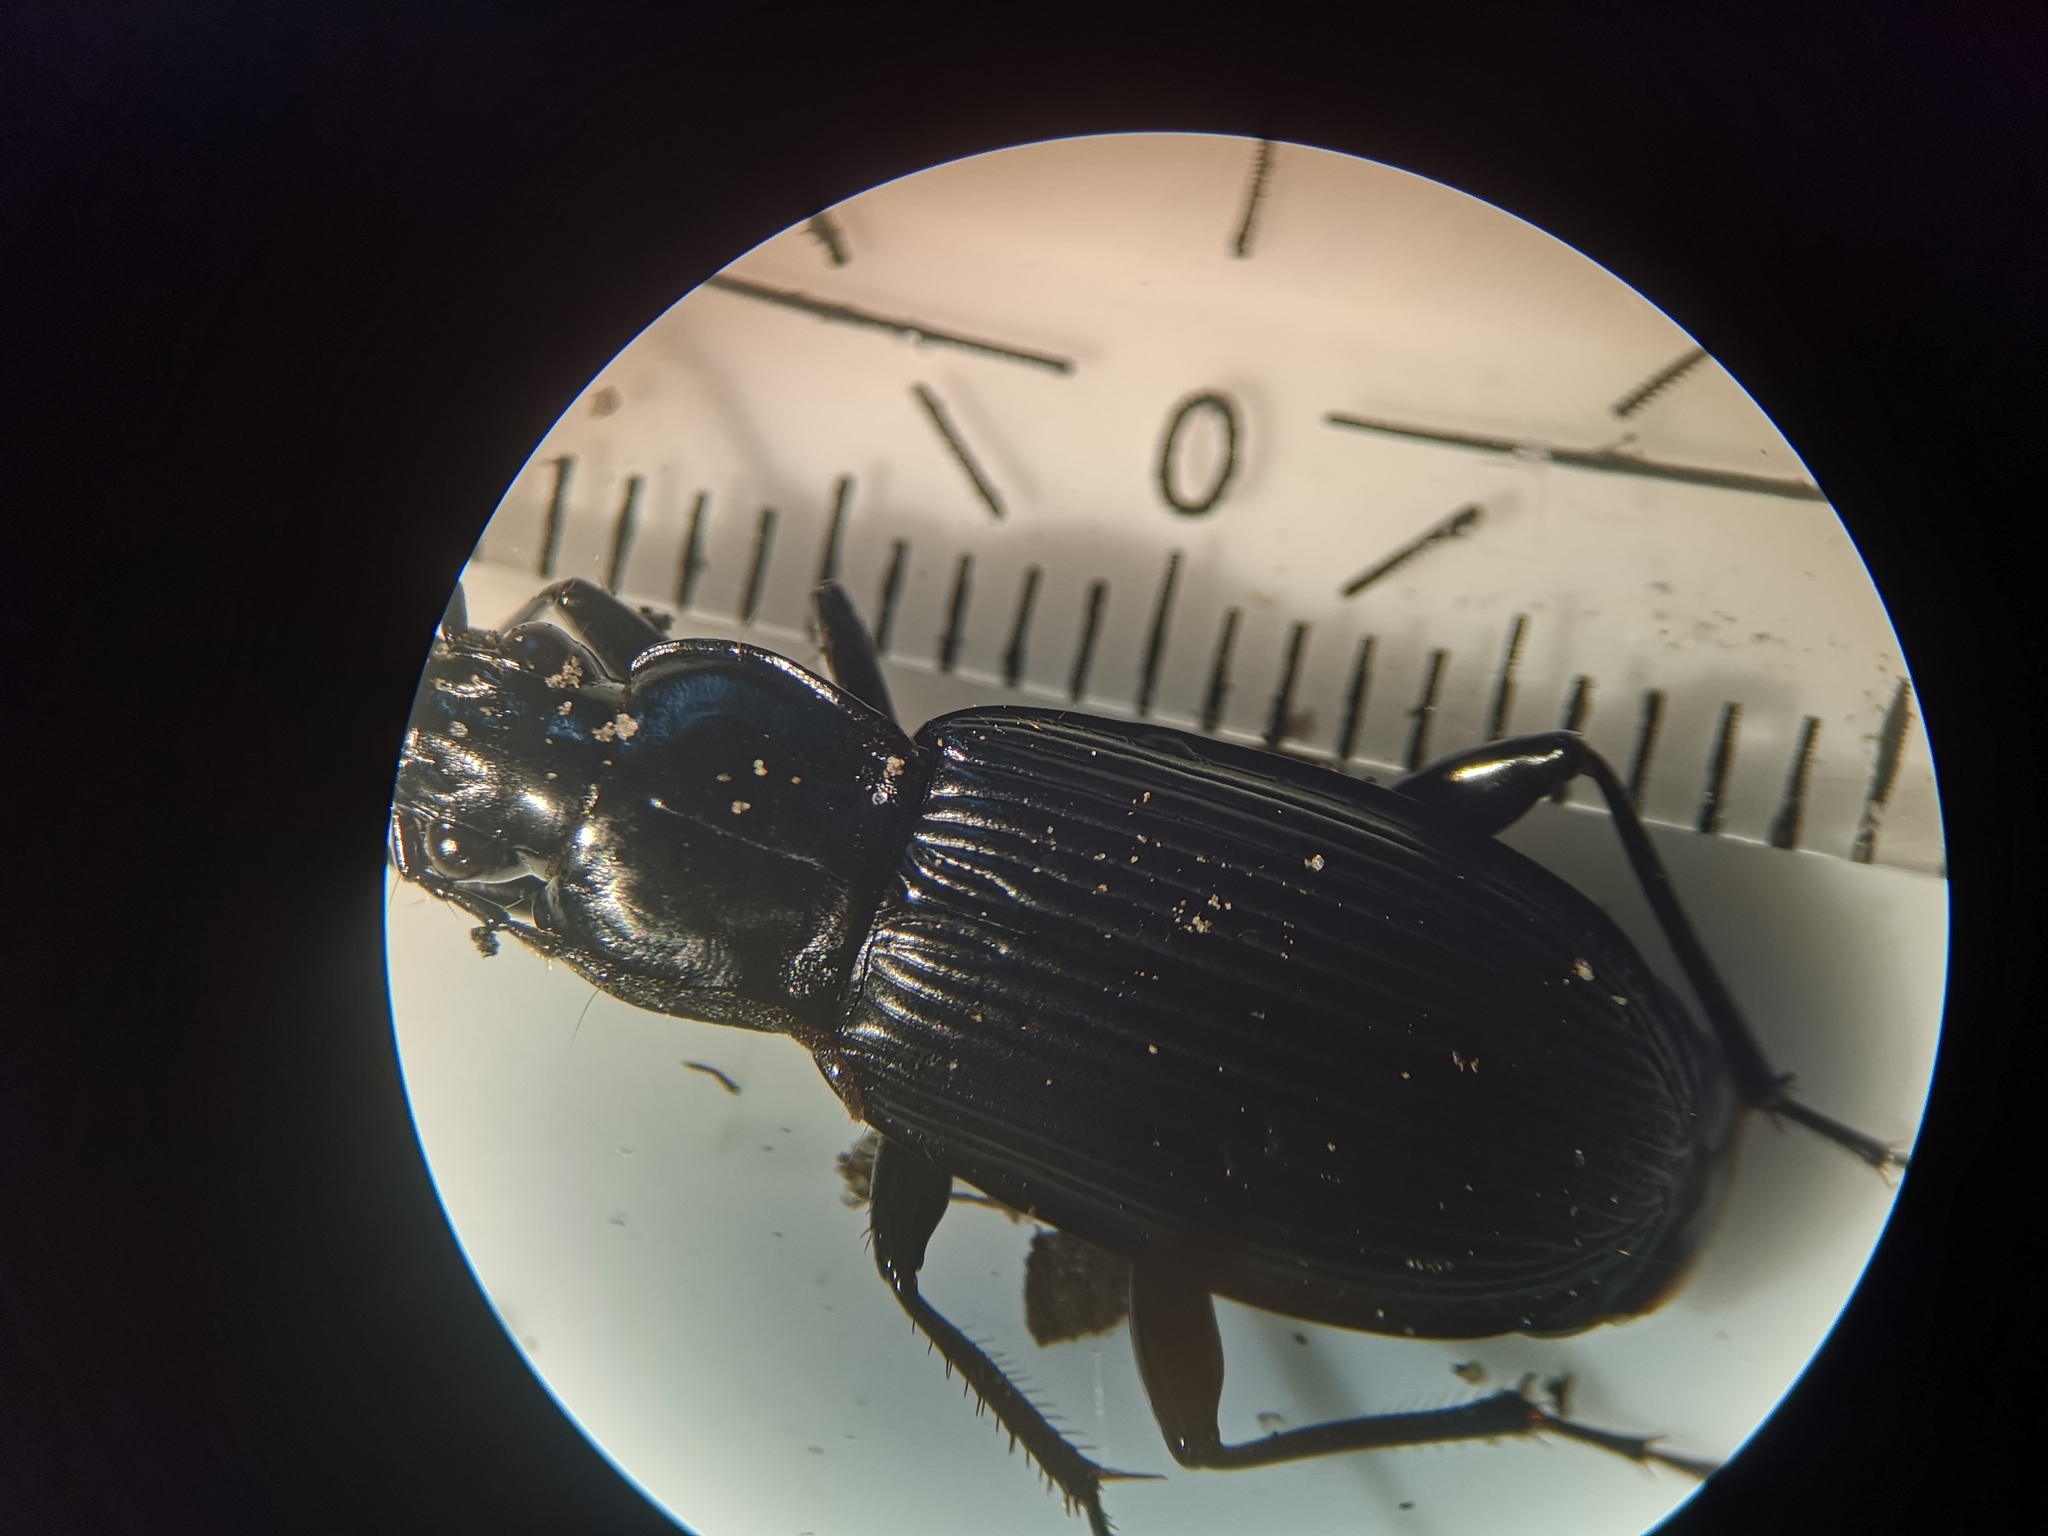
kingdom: Animalia
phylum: Arthropoda
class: Insecta
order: Coleoptera
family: Carabidae
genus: Pterostichus
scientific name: Pterostichus niger
